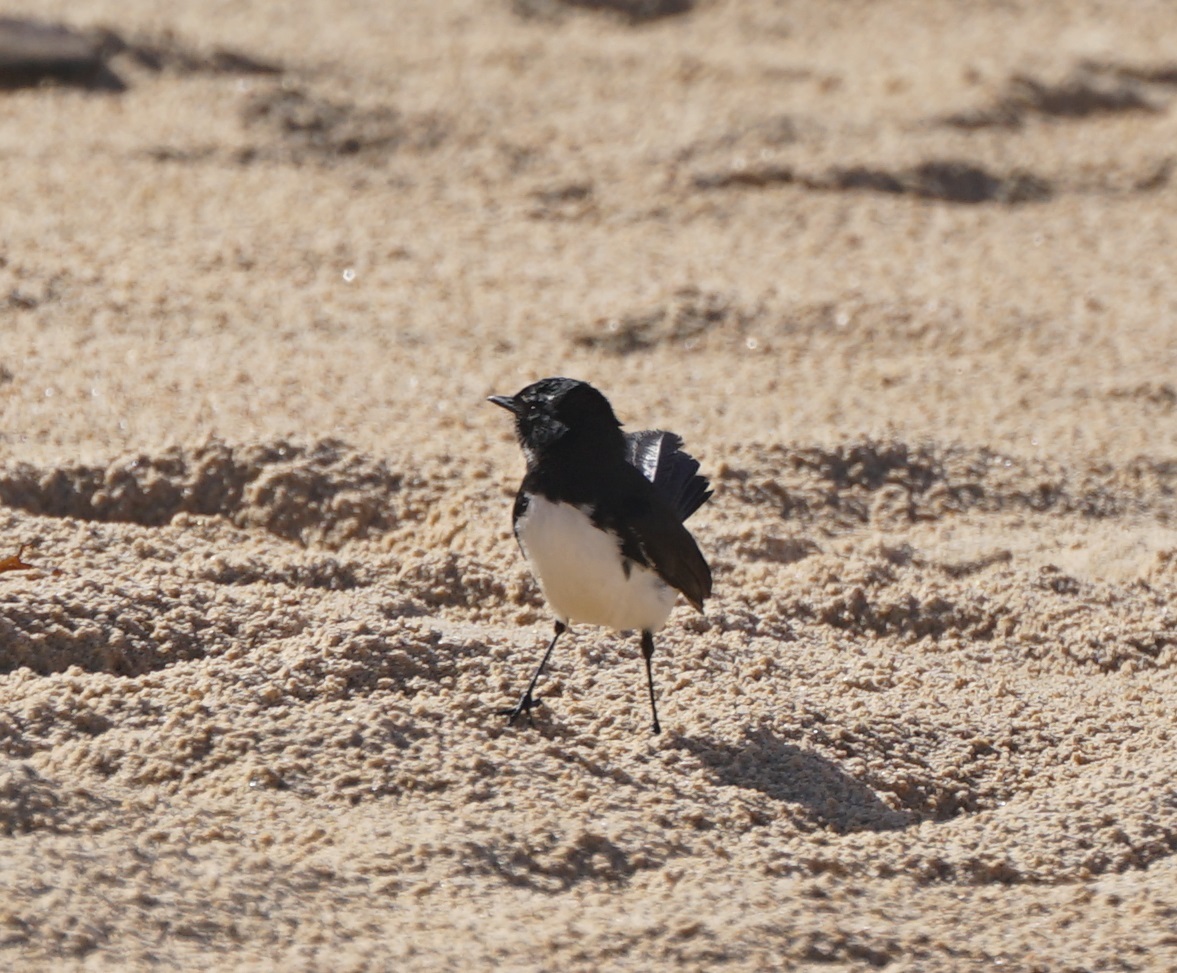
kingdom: Animalia
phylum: Chordata
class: Aves
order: Passeriformes
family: Rhipiduridae
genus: Rhipidura
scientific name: Rhipidura leucophrys
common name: Willie wagtail
